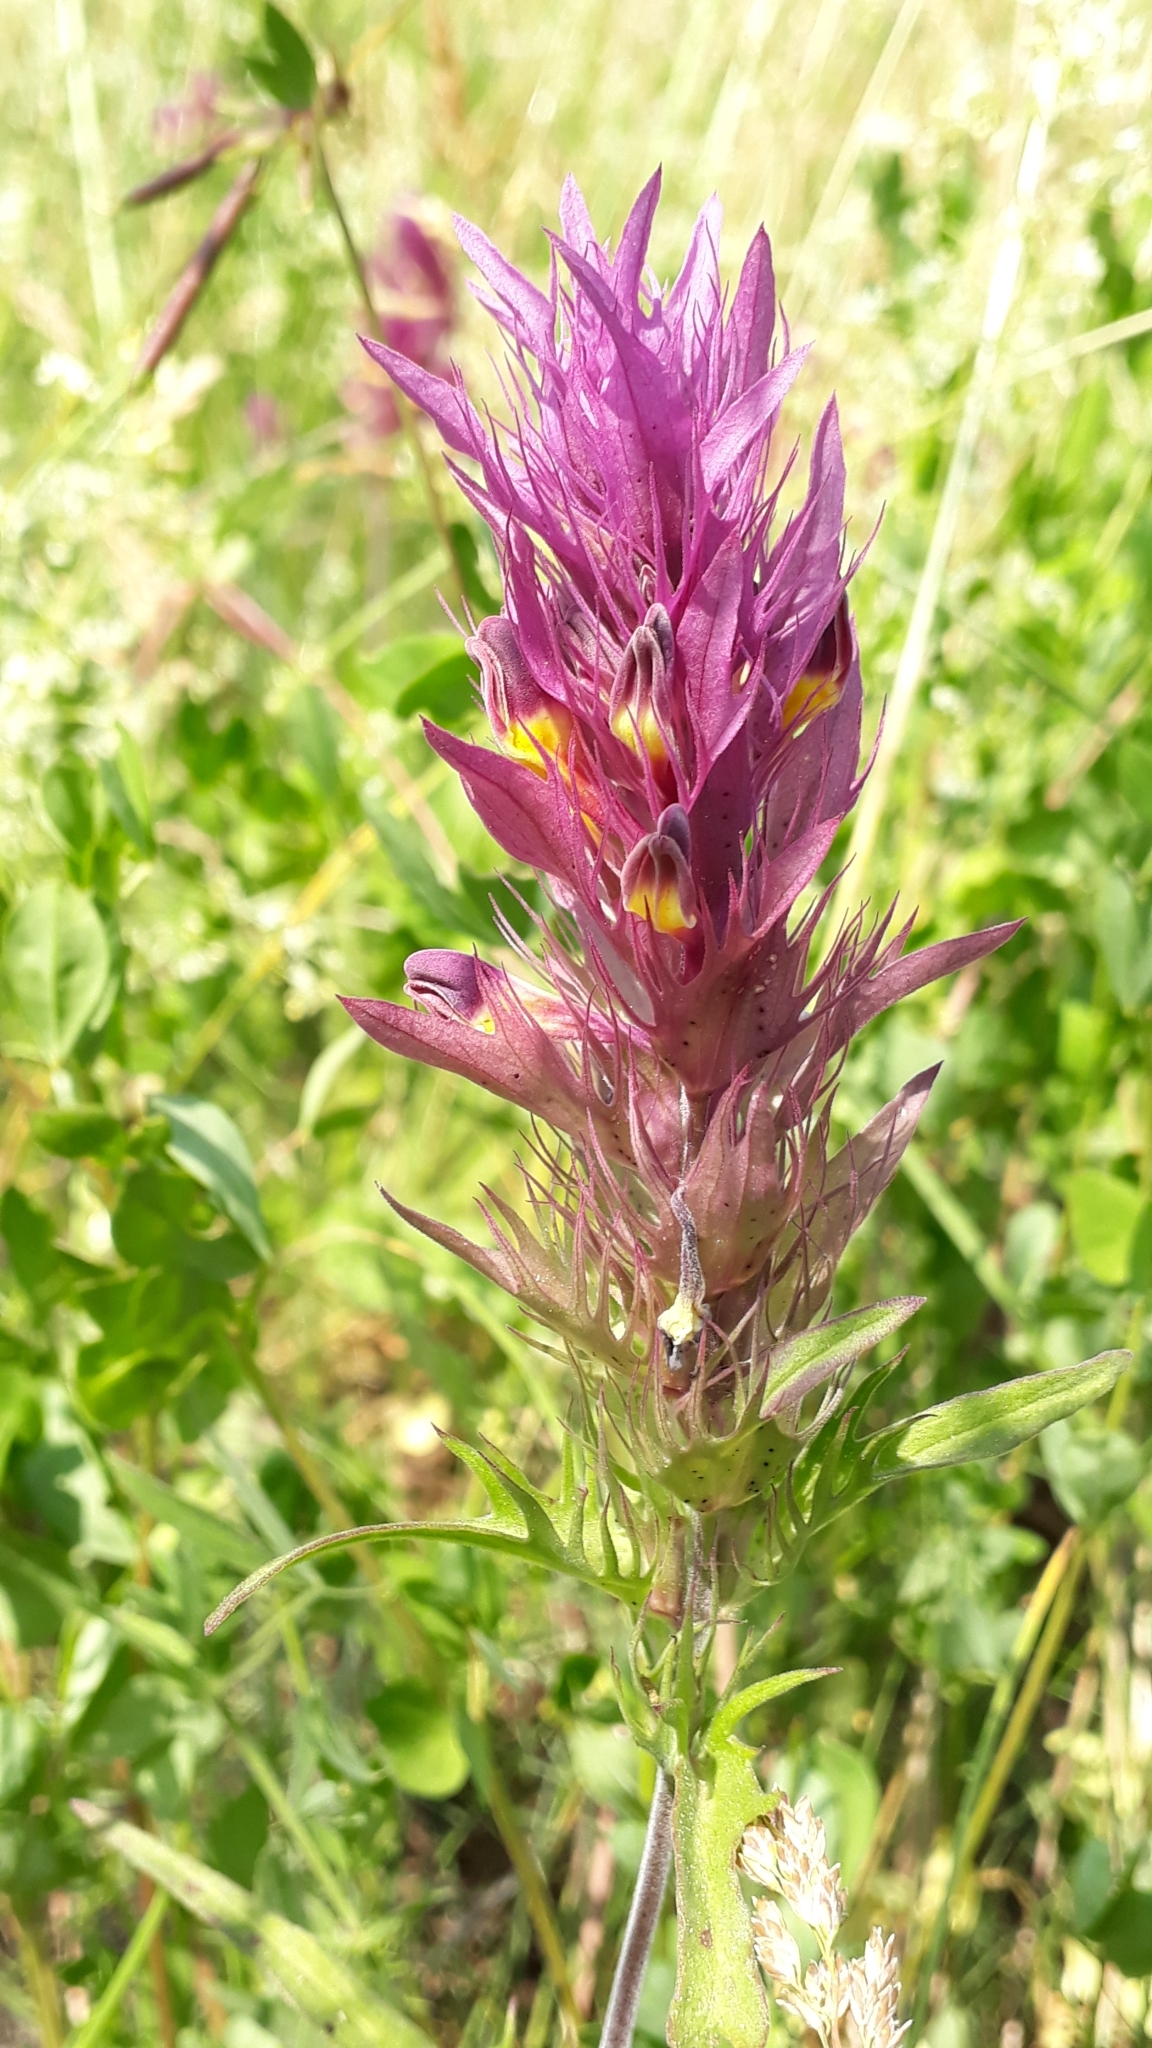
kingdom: Plantae
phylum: Tracheophyta
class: Magnoliopsida
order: Lamiales
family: Orobanchaceae
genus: Melampyrum
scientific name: Melampyrum arvense
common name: Field cow-wheat
